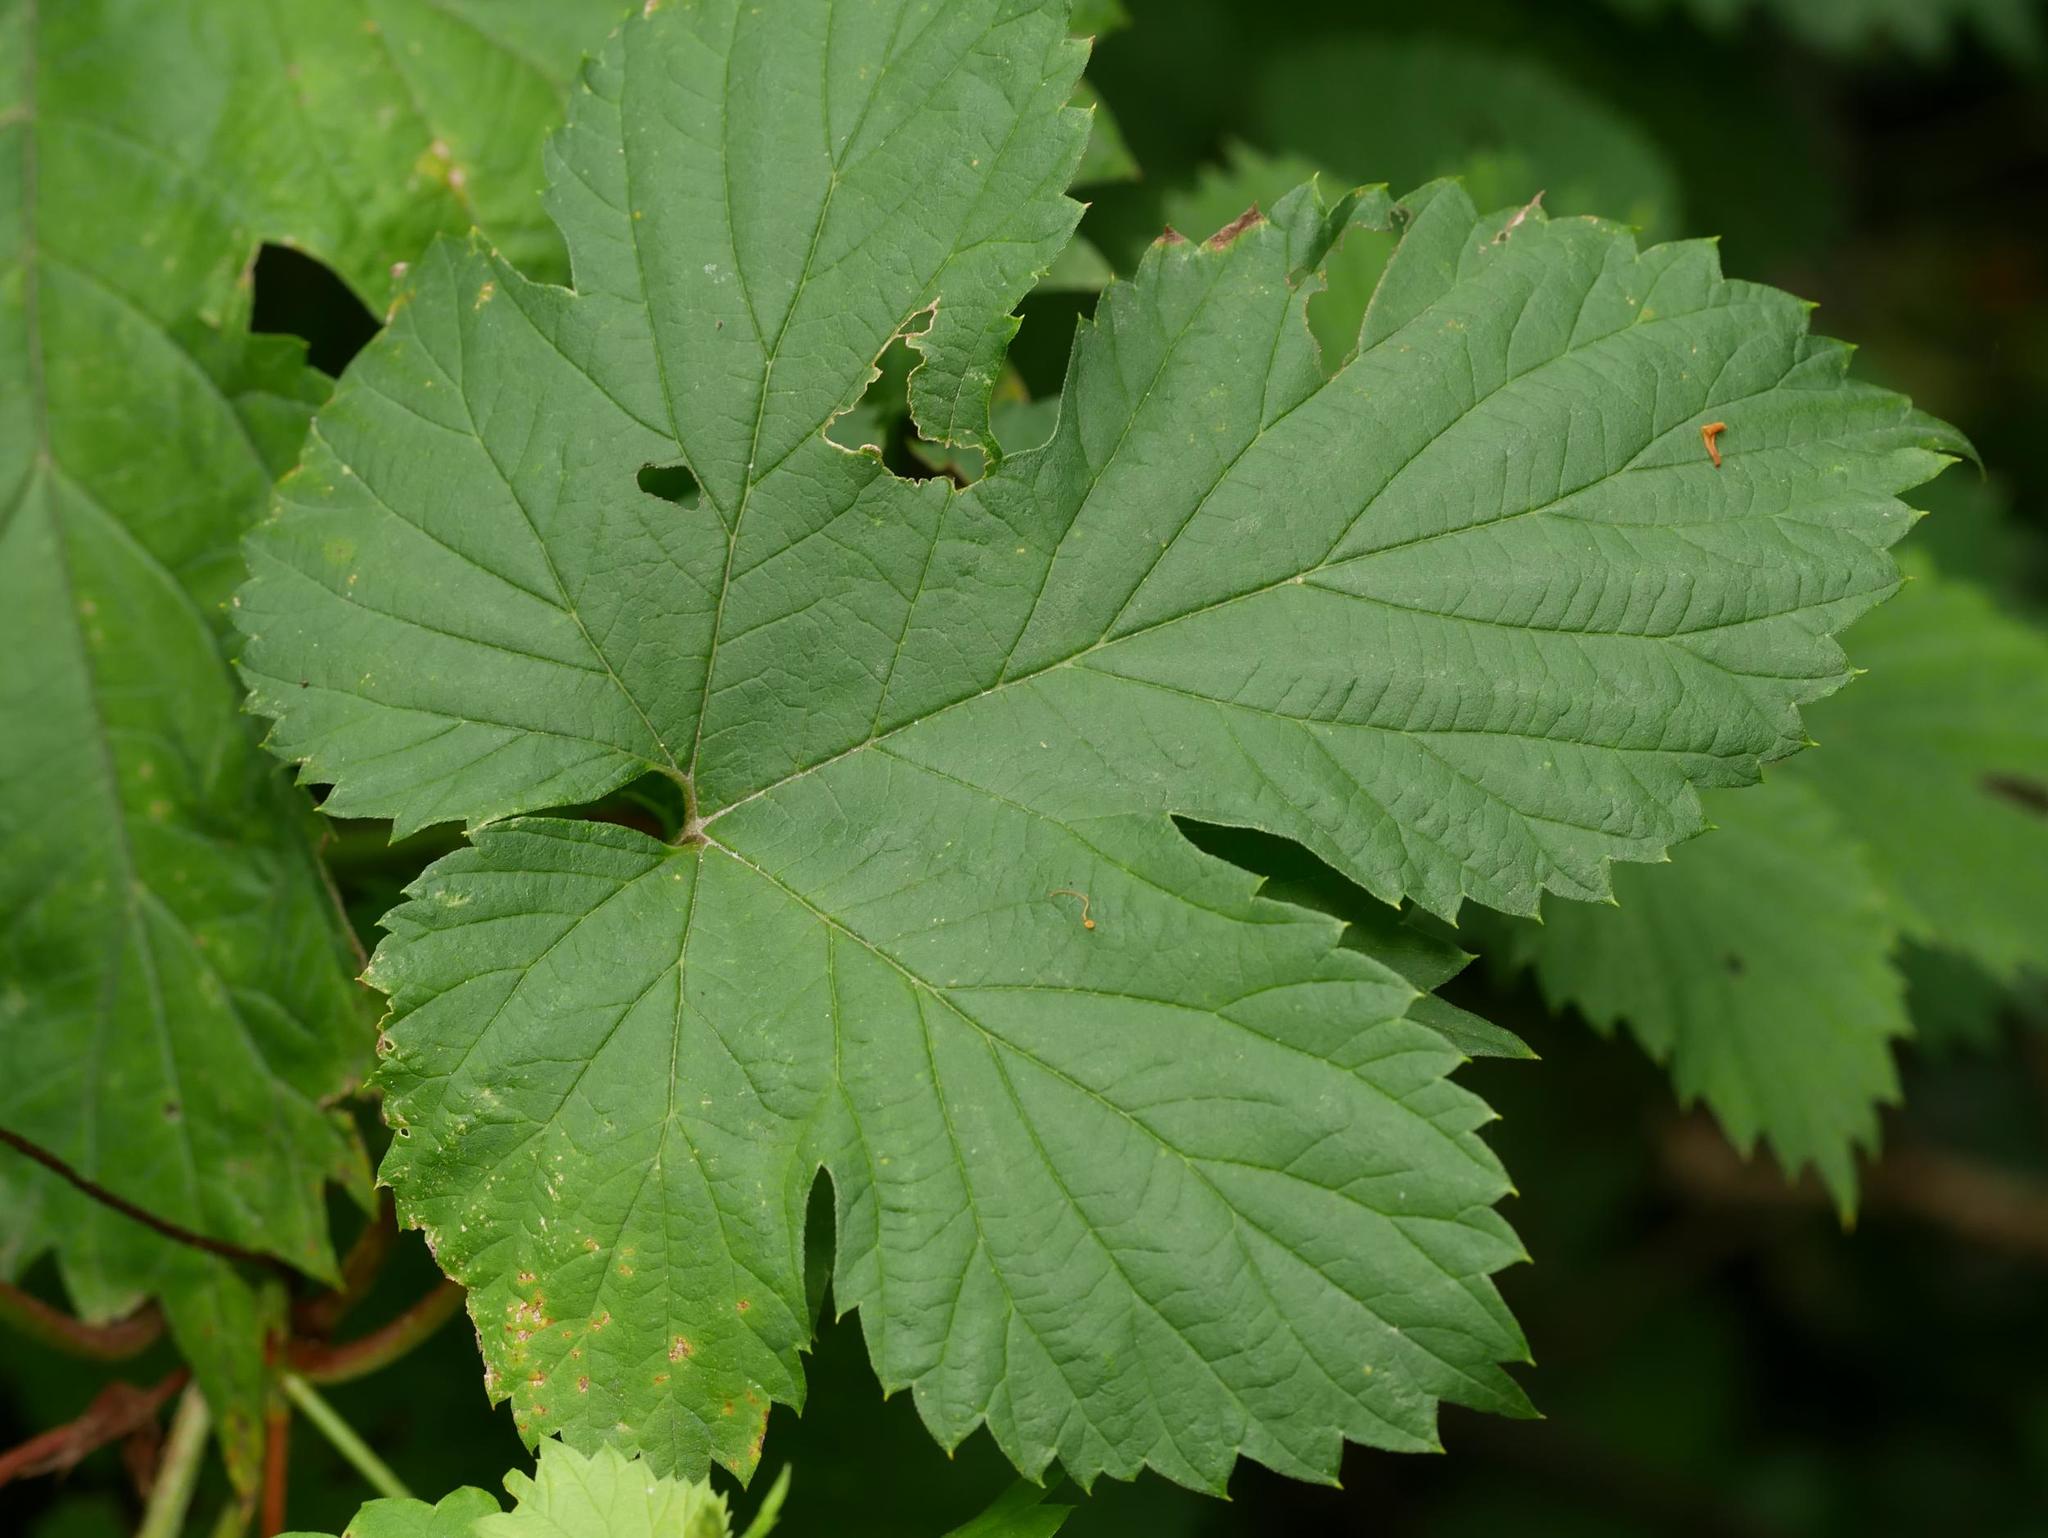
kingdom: Plantae
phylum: Tracheophyta
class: Magnoliopsida
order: Rosales
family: Cannabaceae
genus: Humulus
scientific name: Humulus lupulus
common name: Hop
